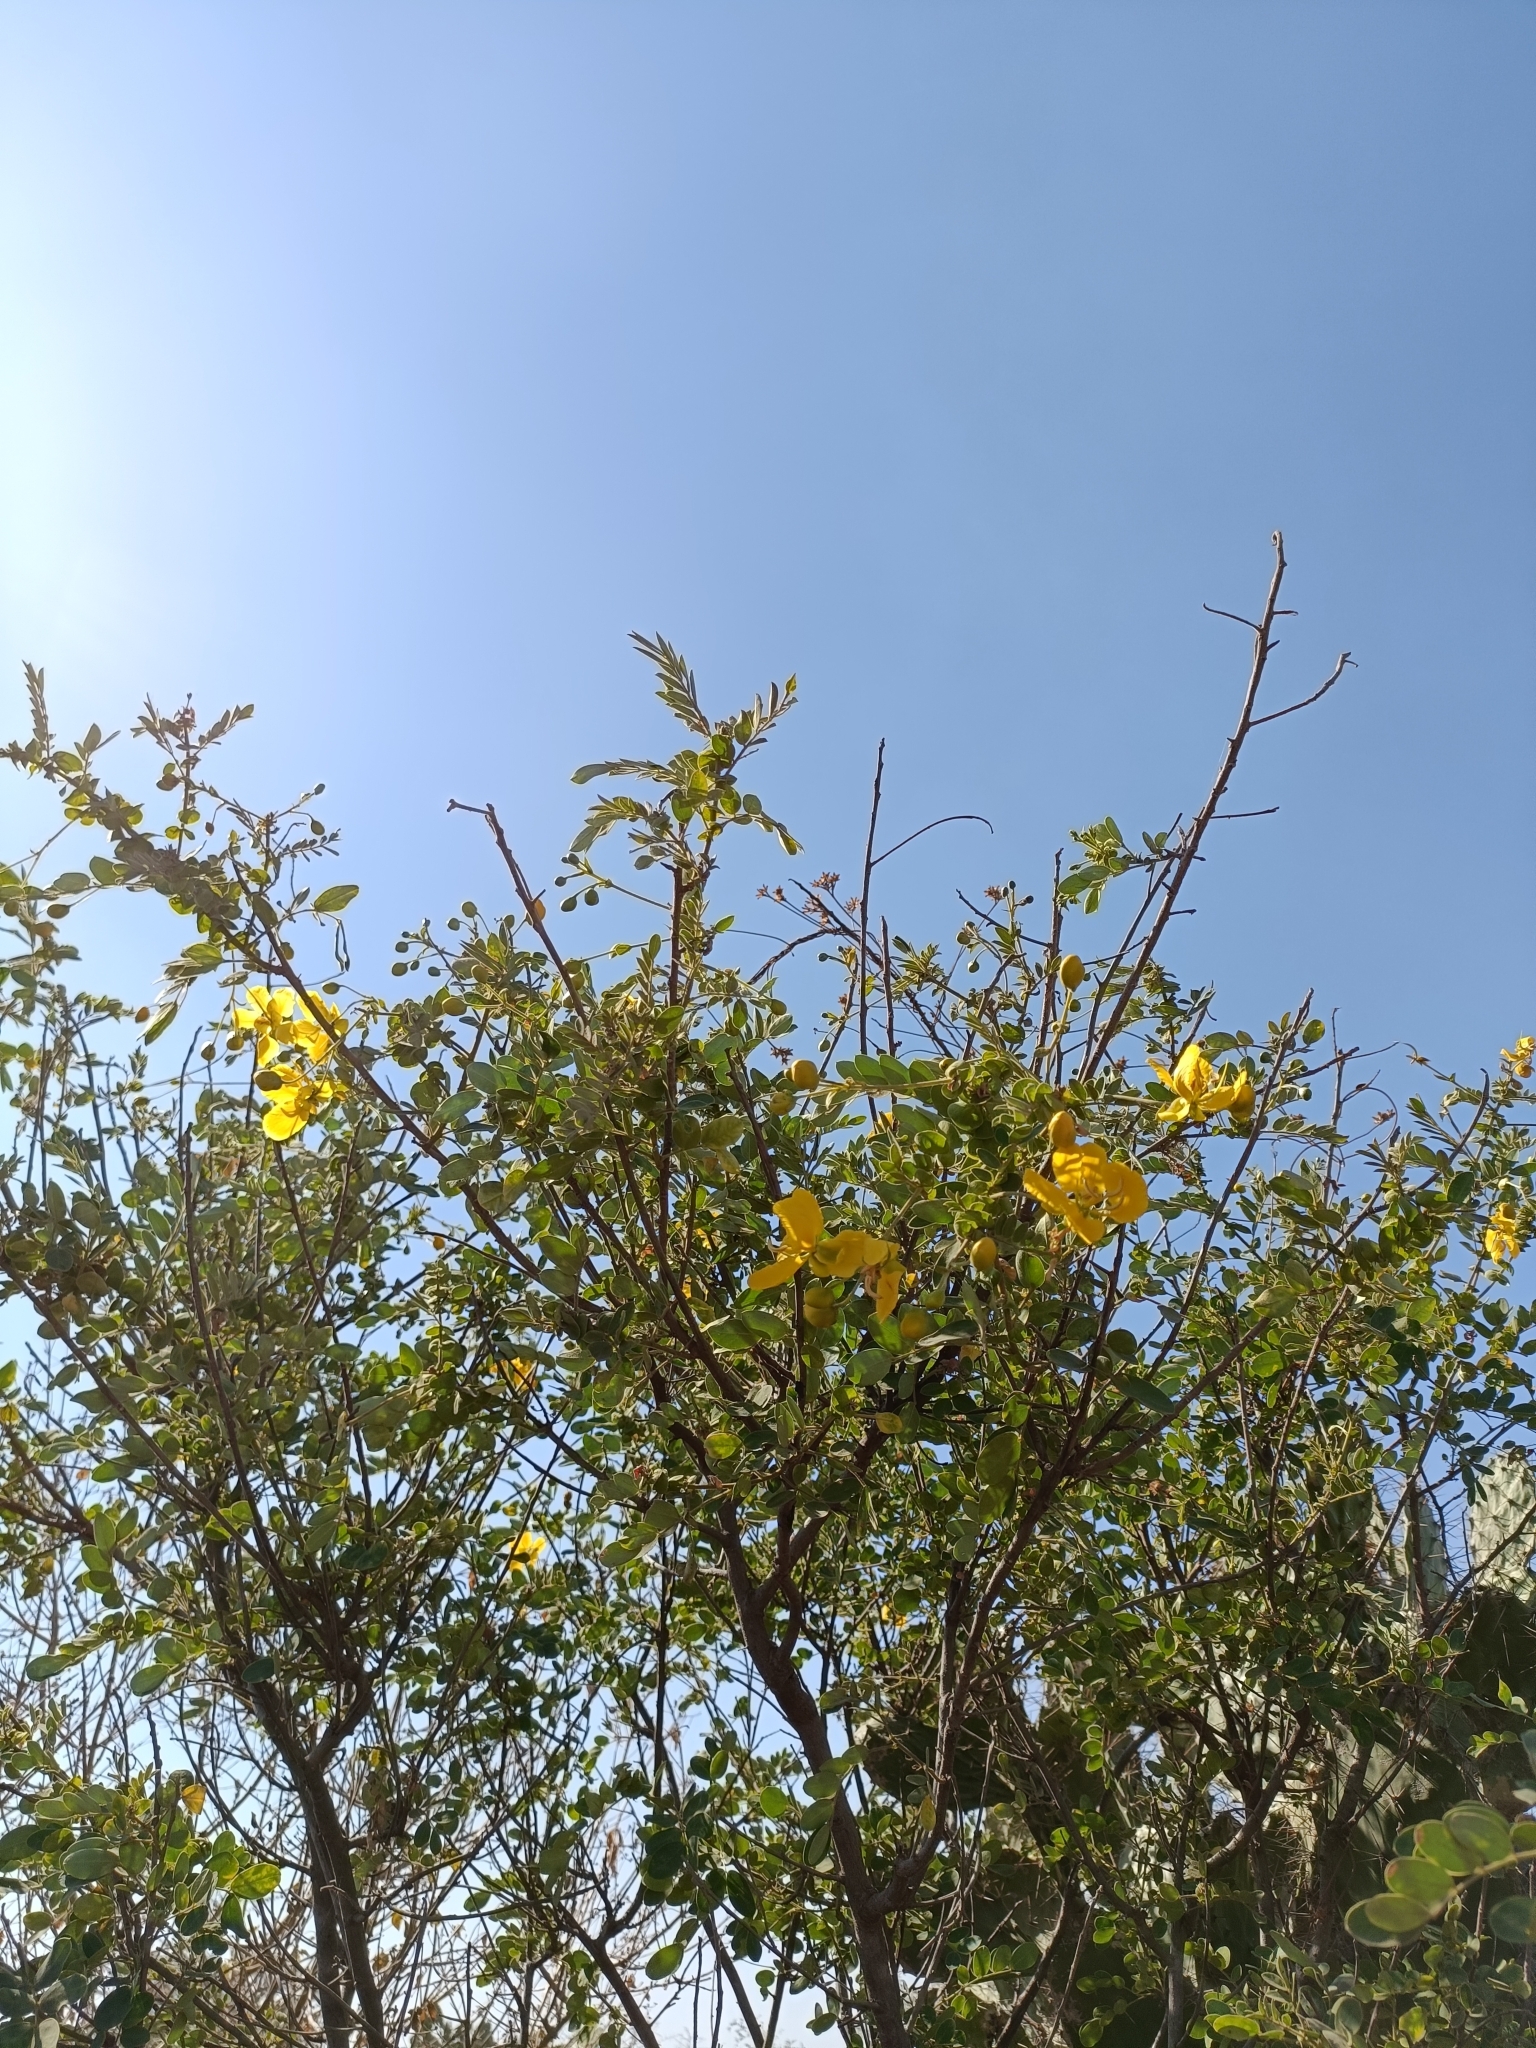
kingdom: Plantae
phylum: Tracheophyta
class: Magnoliopsida
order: Fabales
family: Fabaceae
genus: Senna
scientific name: Senna auriculata
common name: Tanner's cassia
